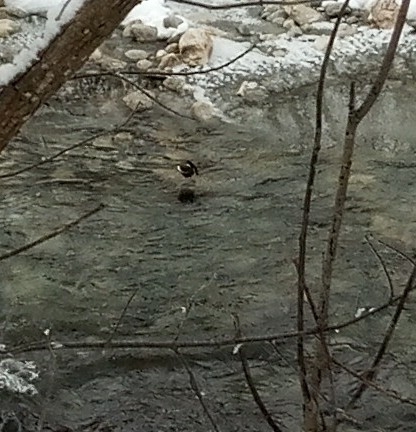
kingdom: Animalia
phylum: Chordata
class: Aves
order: Passeriformes
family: Cinclidae
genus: Cinclus
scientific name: Cinclus cinclus
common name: White-throated dipper
